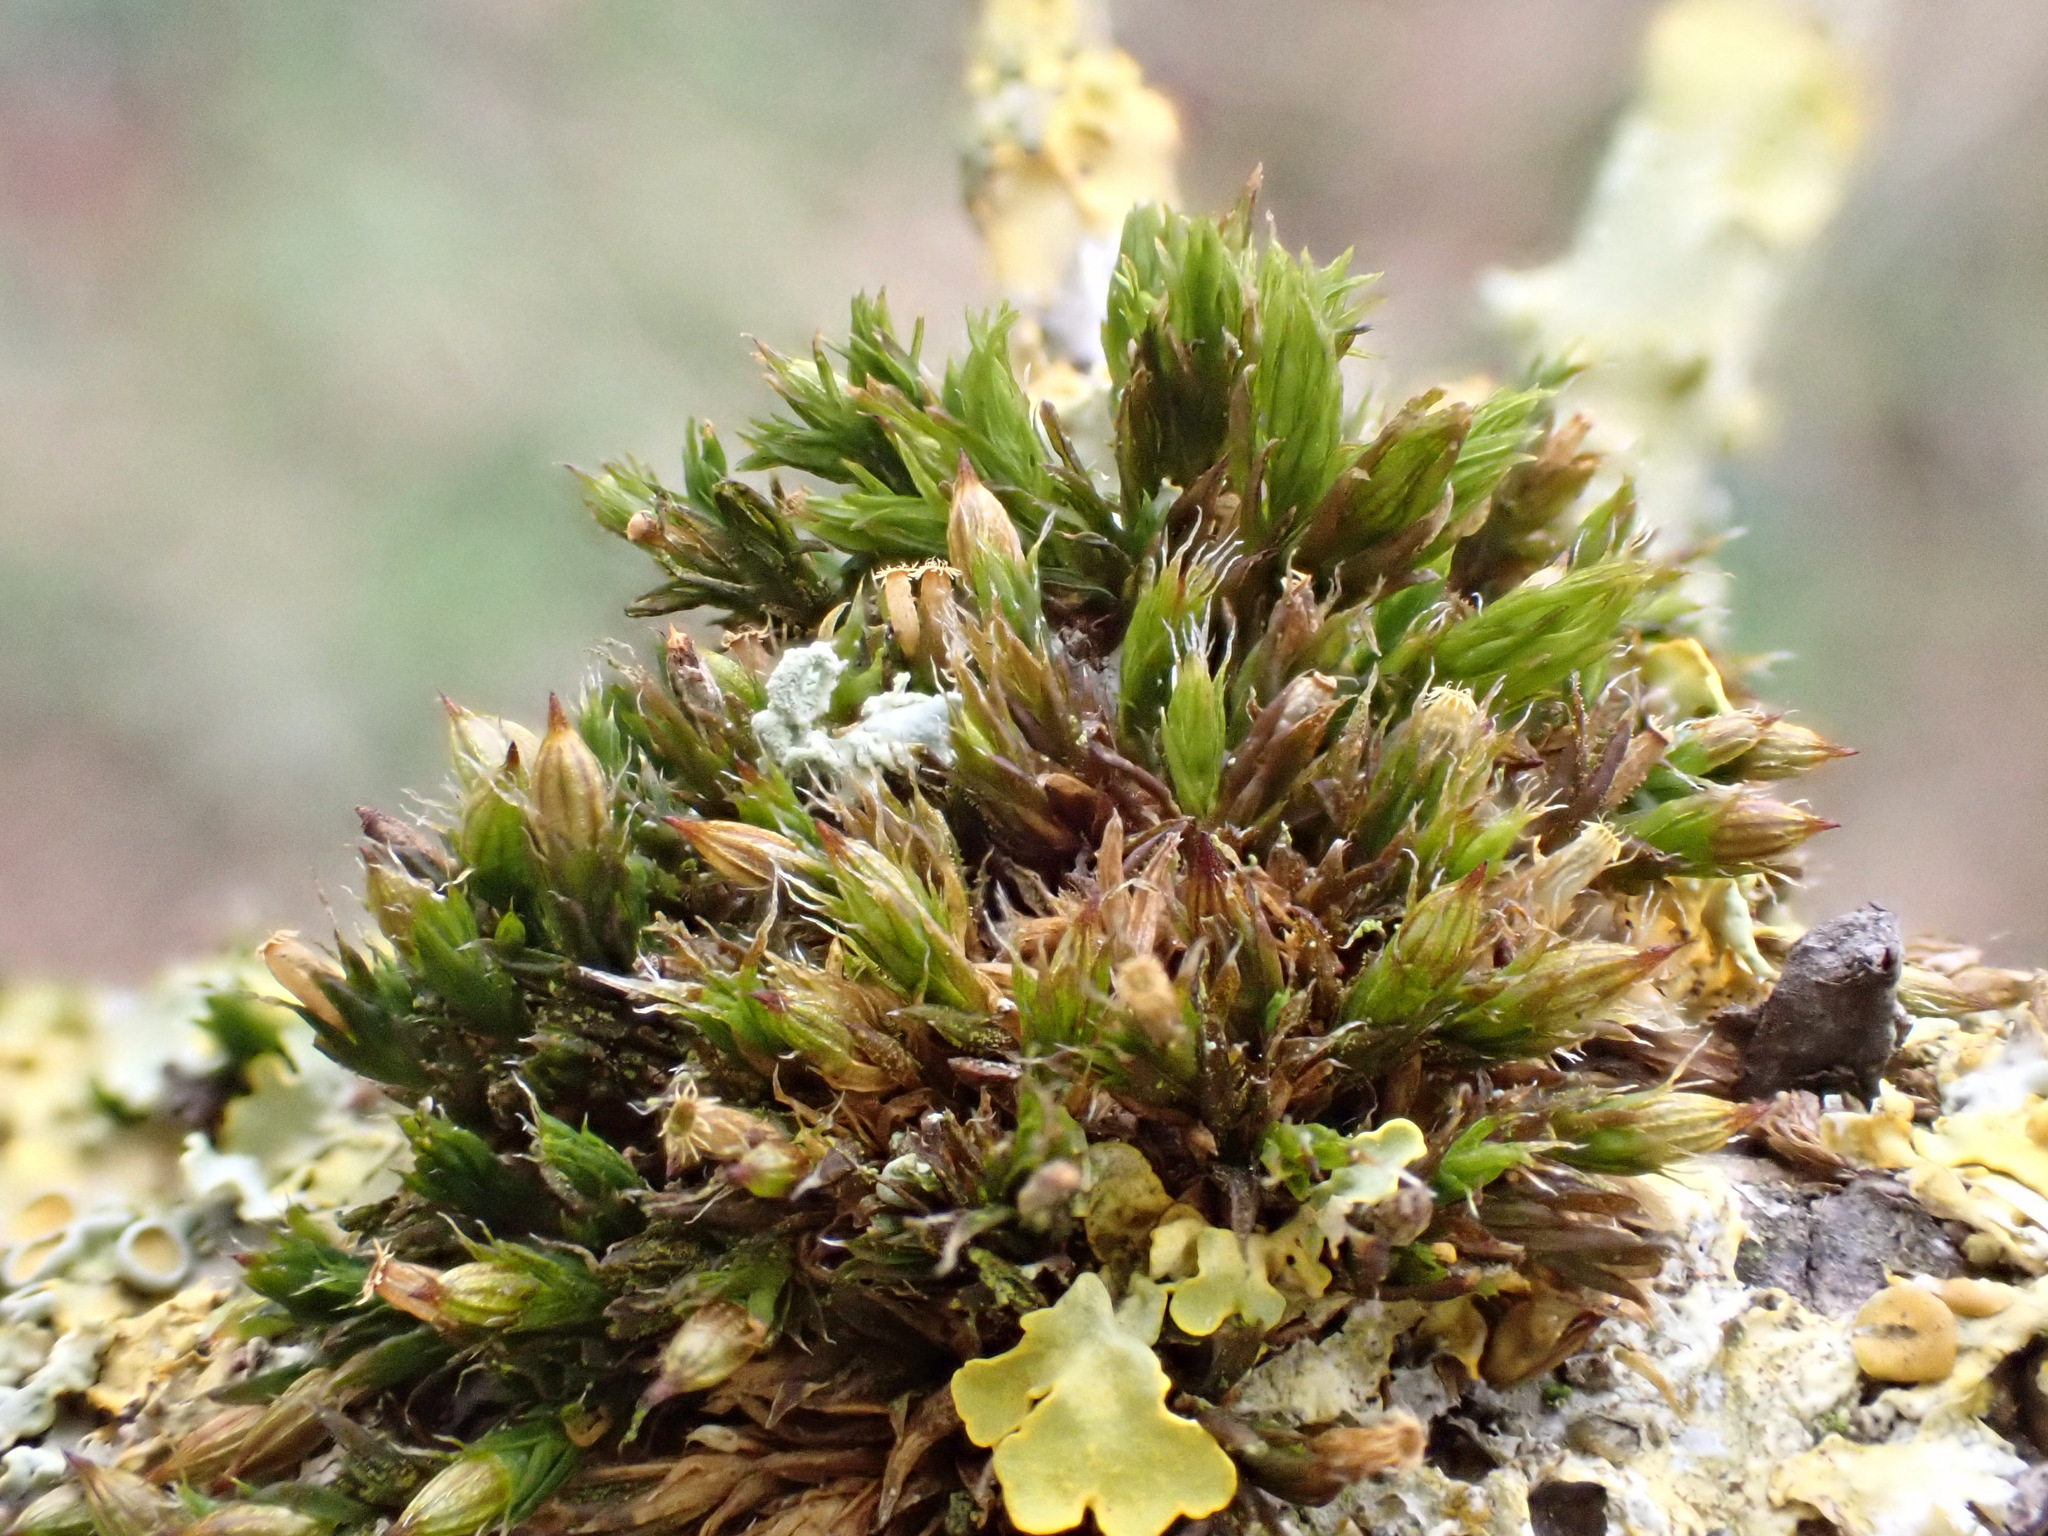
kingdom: Plantae
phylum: Bryophyta
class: Bryopsida
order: Orthotrichales
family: Orthotrichaceae
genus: Orthotrichum
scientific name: Orthotrichum diaphanum
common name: White-tipped bristle-moss
